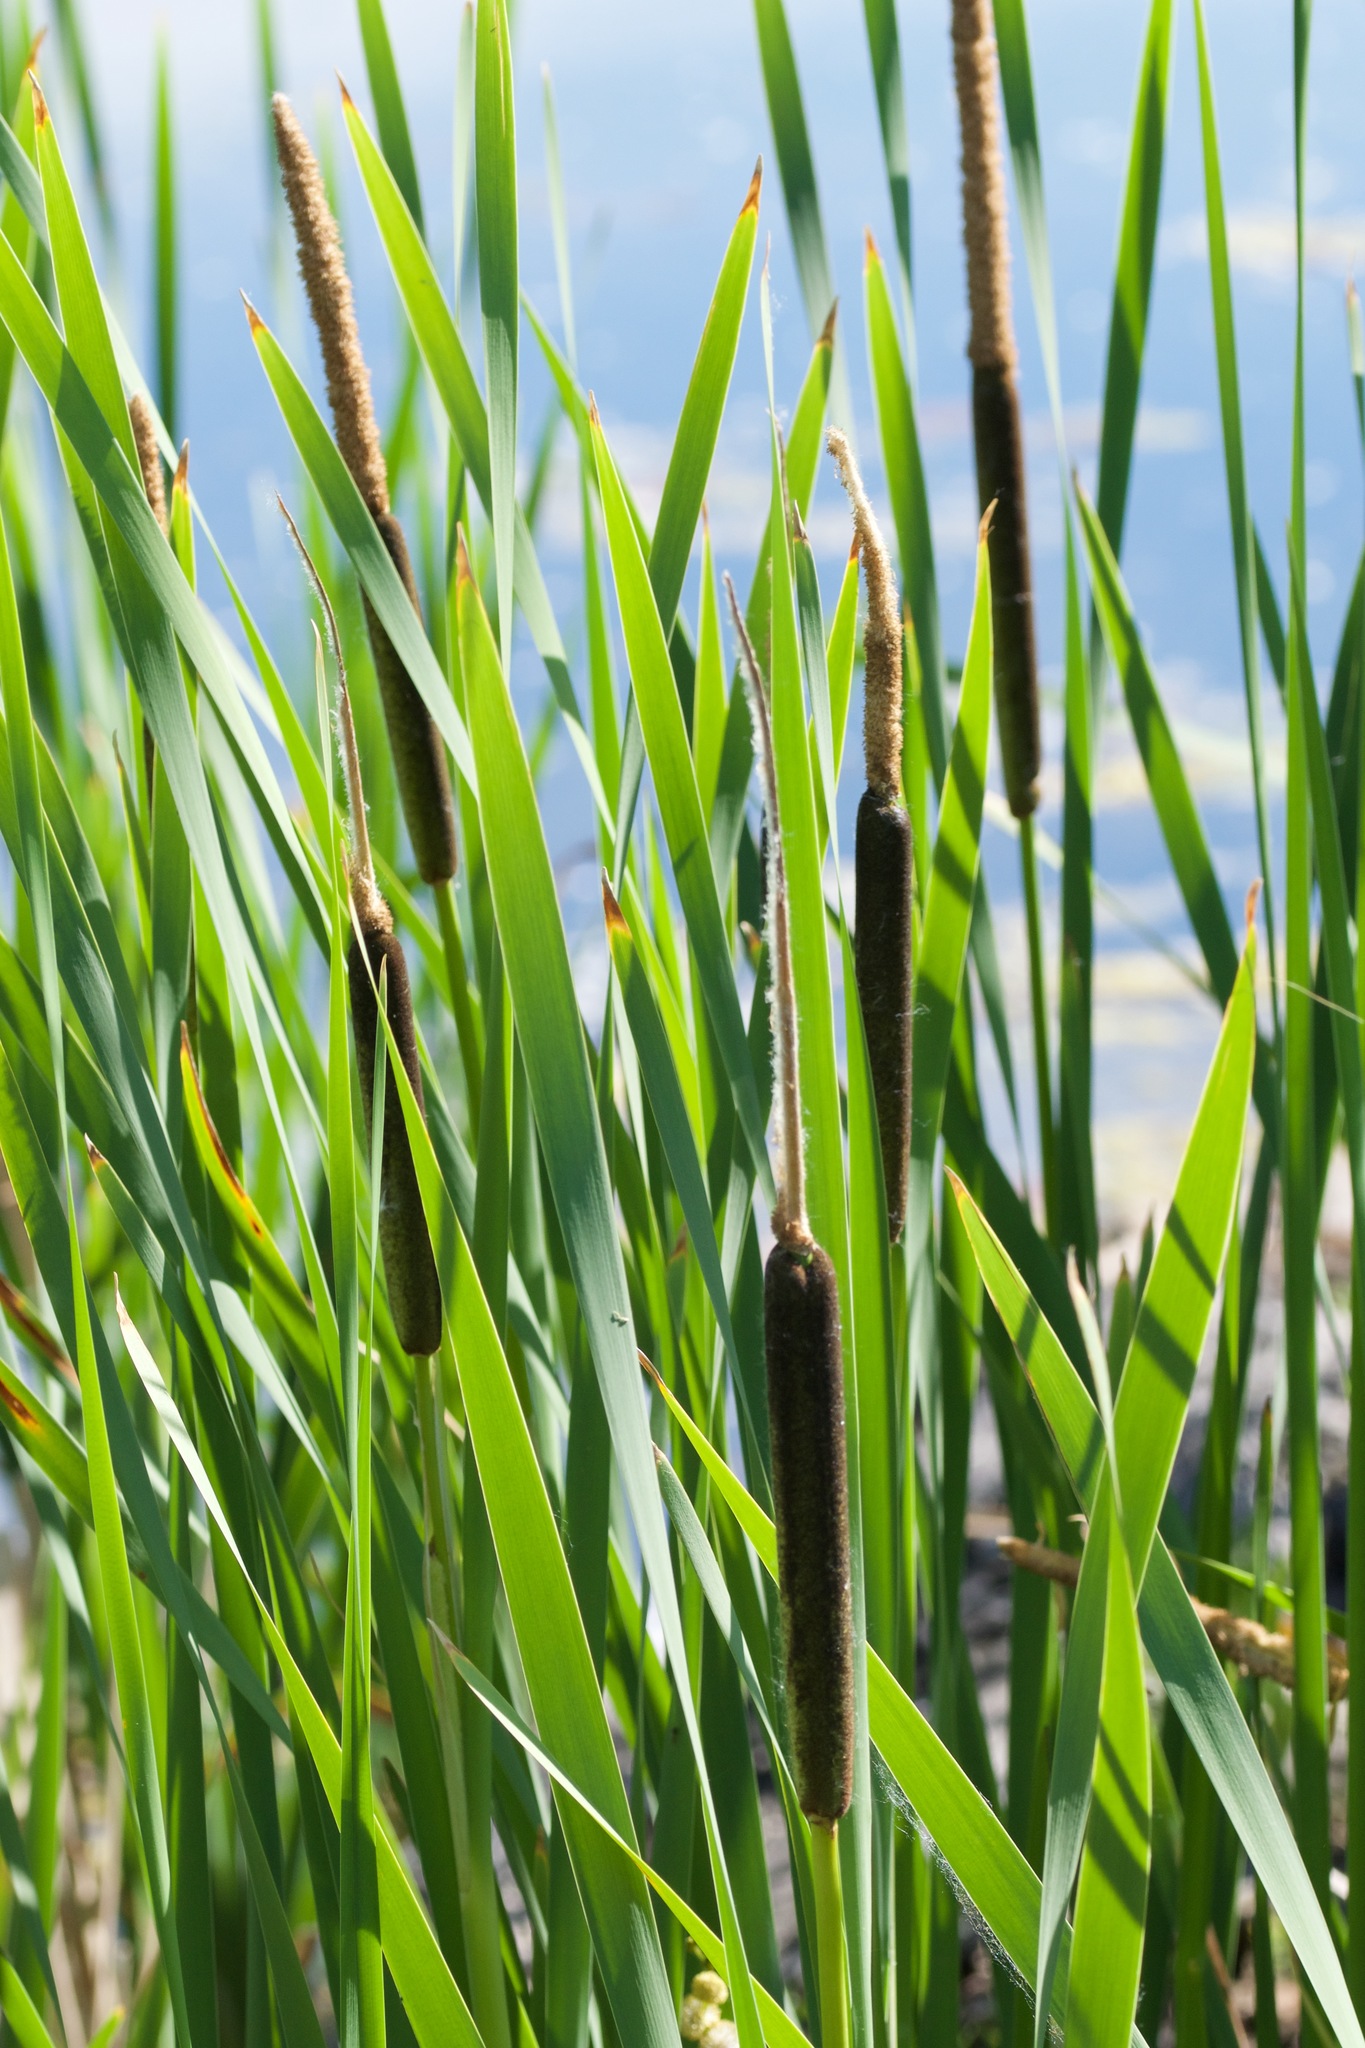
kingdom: Plantae
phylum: Tracheophyta
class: Liliopsida
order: Poales
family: Typhaceae
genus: Typha
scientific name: Typha latifolia
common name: Broadleaf cattail
